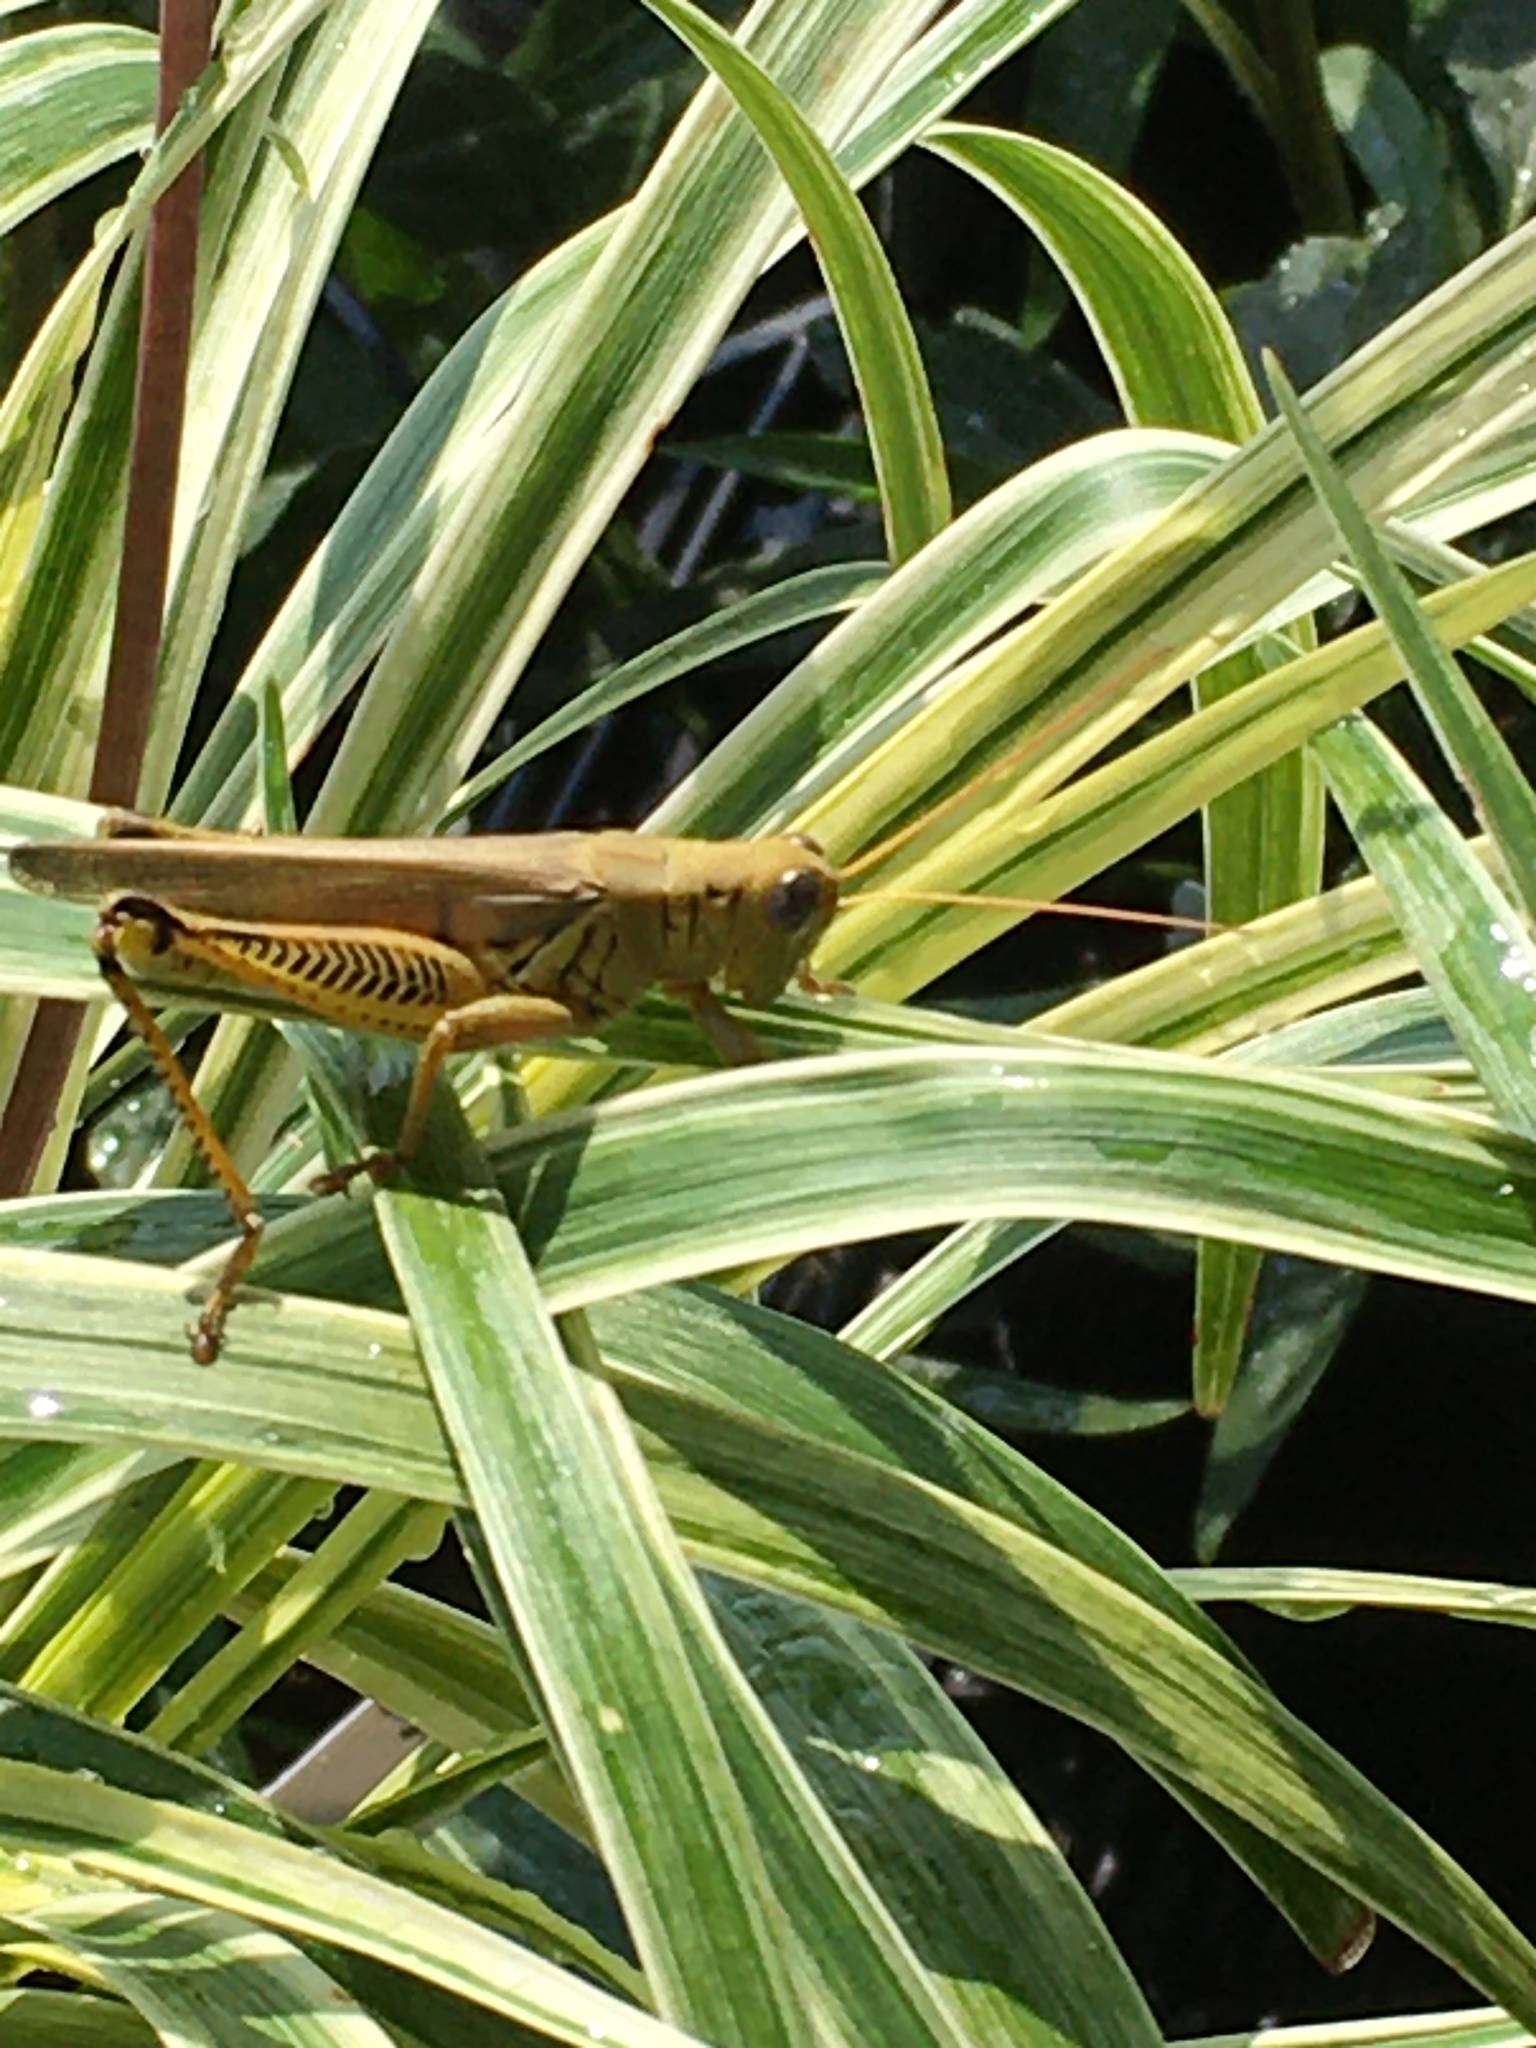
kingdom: Animalia
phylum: Arthropoda
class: Insecta
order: Orthoptera
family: Acrididae
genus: Melanoplus
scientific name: Melanoplus differentialis
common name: Differential grasshopper
